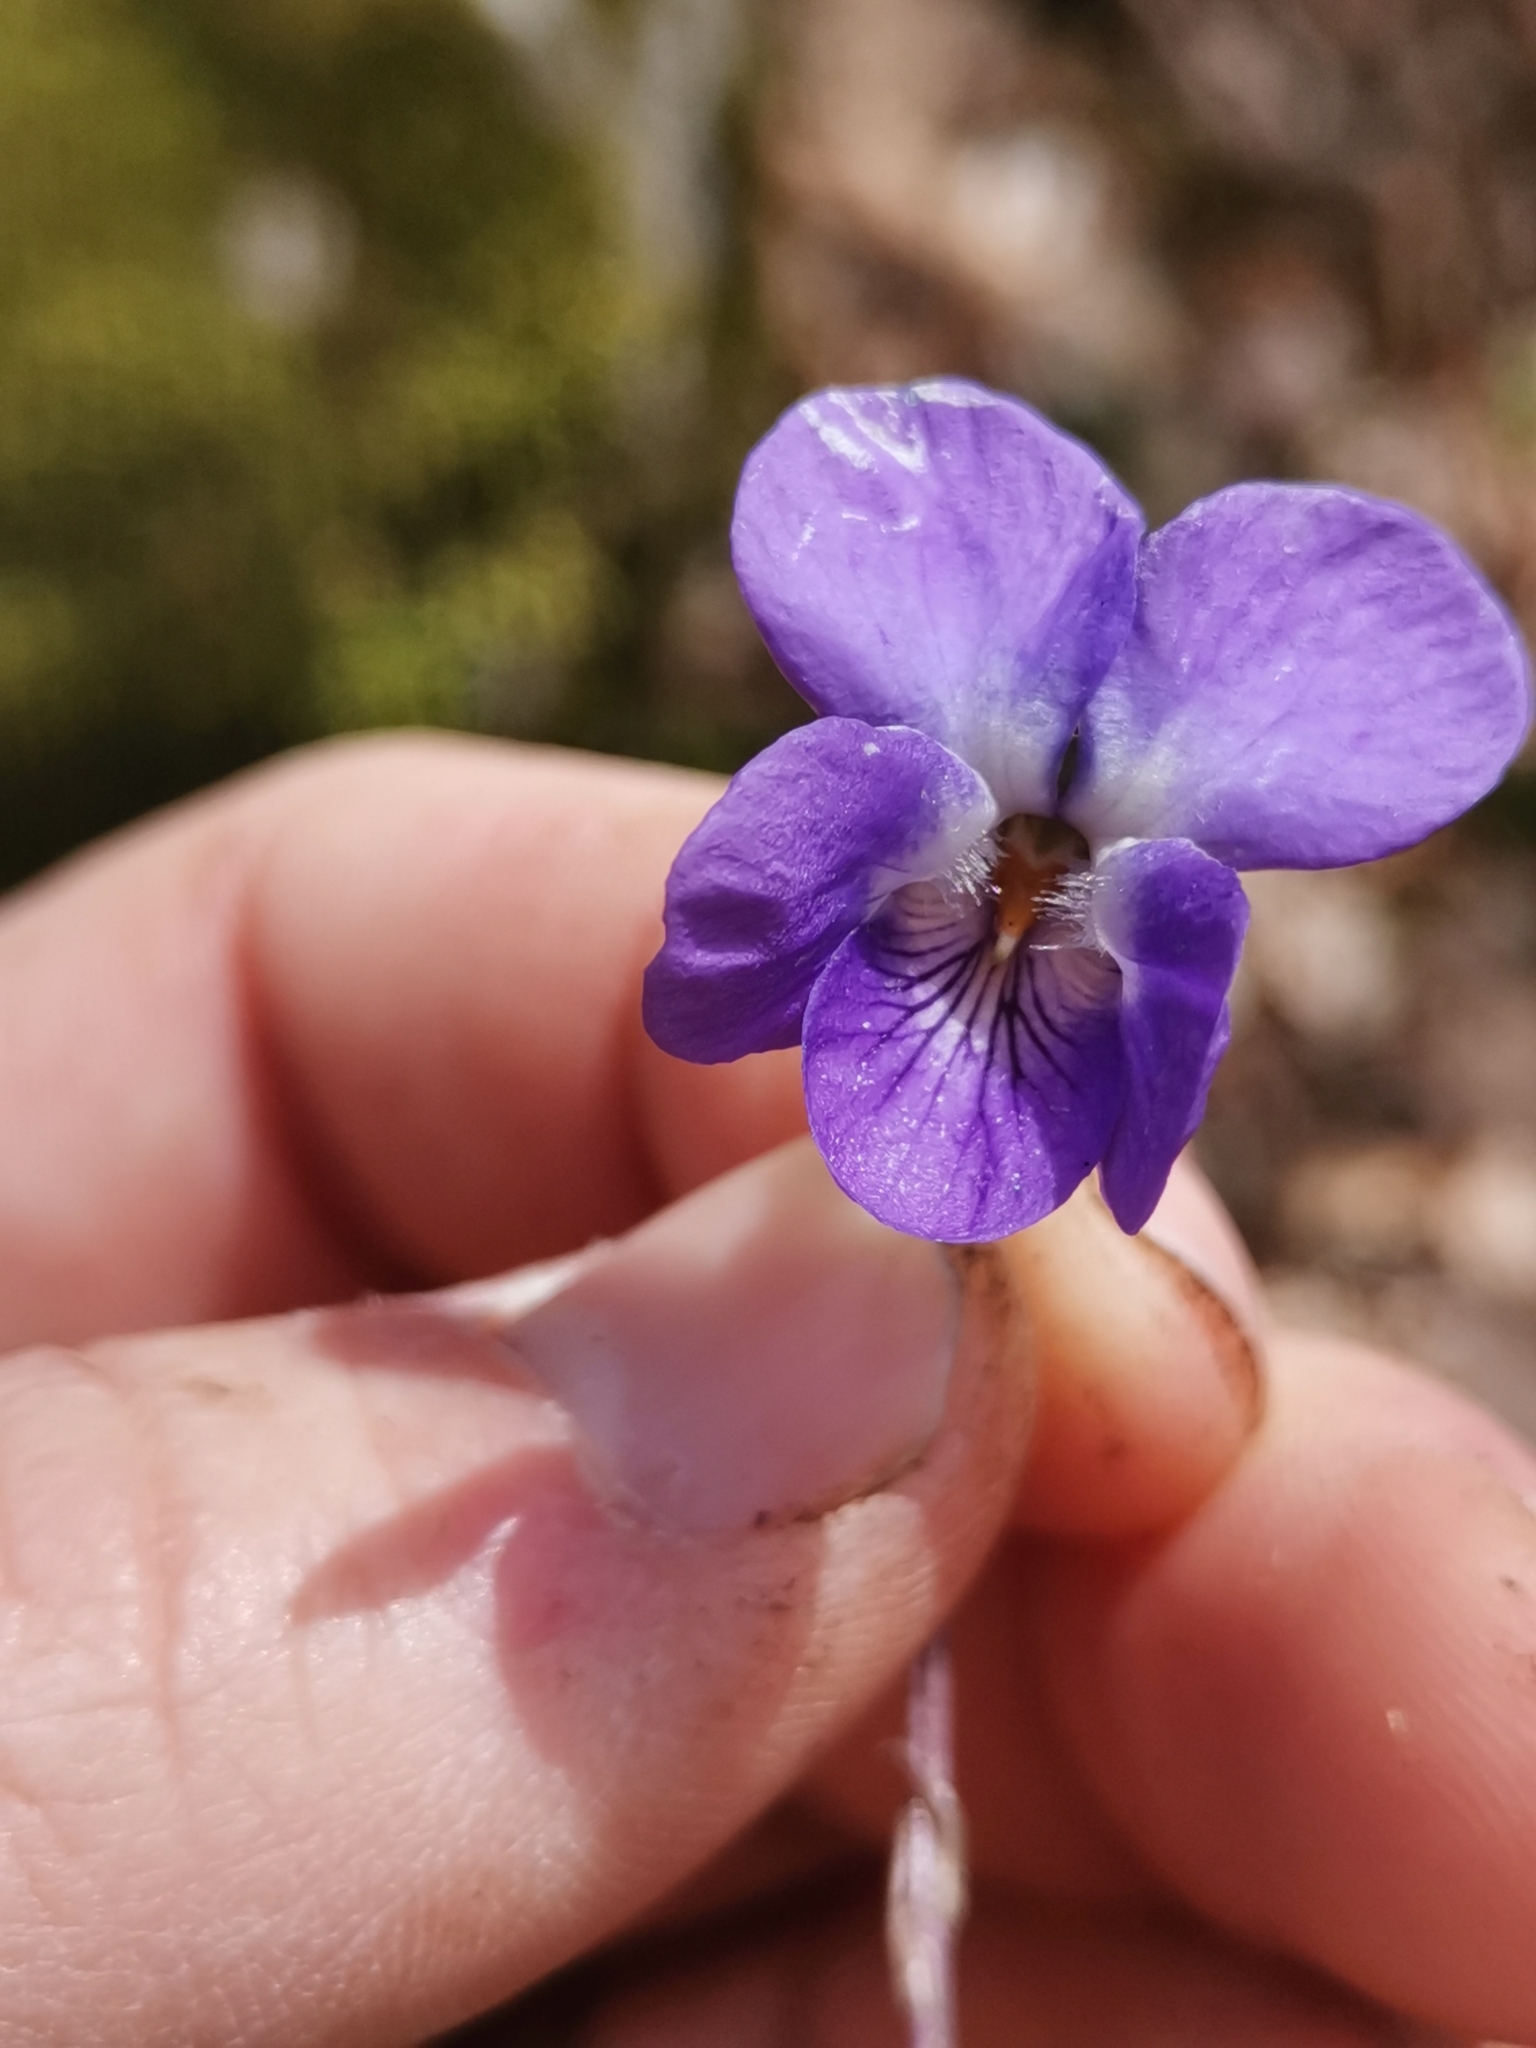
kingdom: Plantae
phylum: Tracheophyta
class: Magnoliopsida
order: Malpighiales
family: Violaceae
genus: Viola
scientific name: Viola alba
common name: White violet
